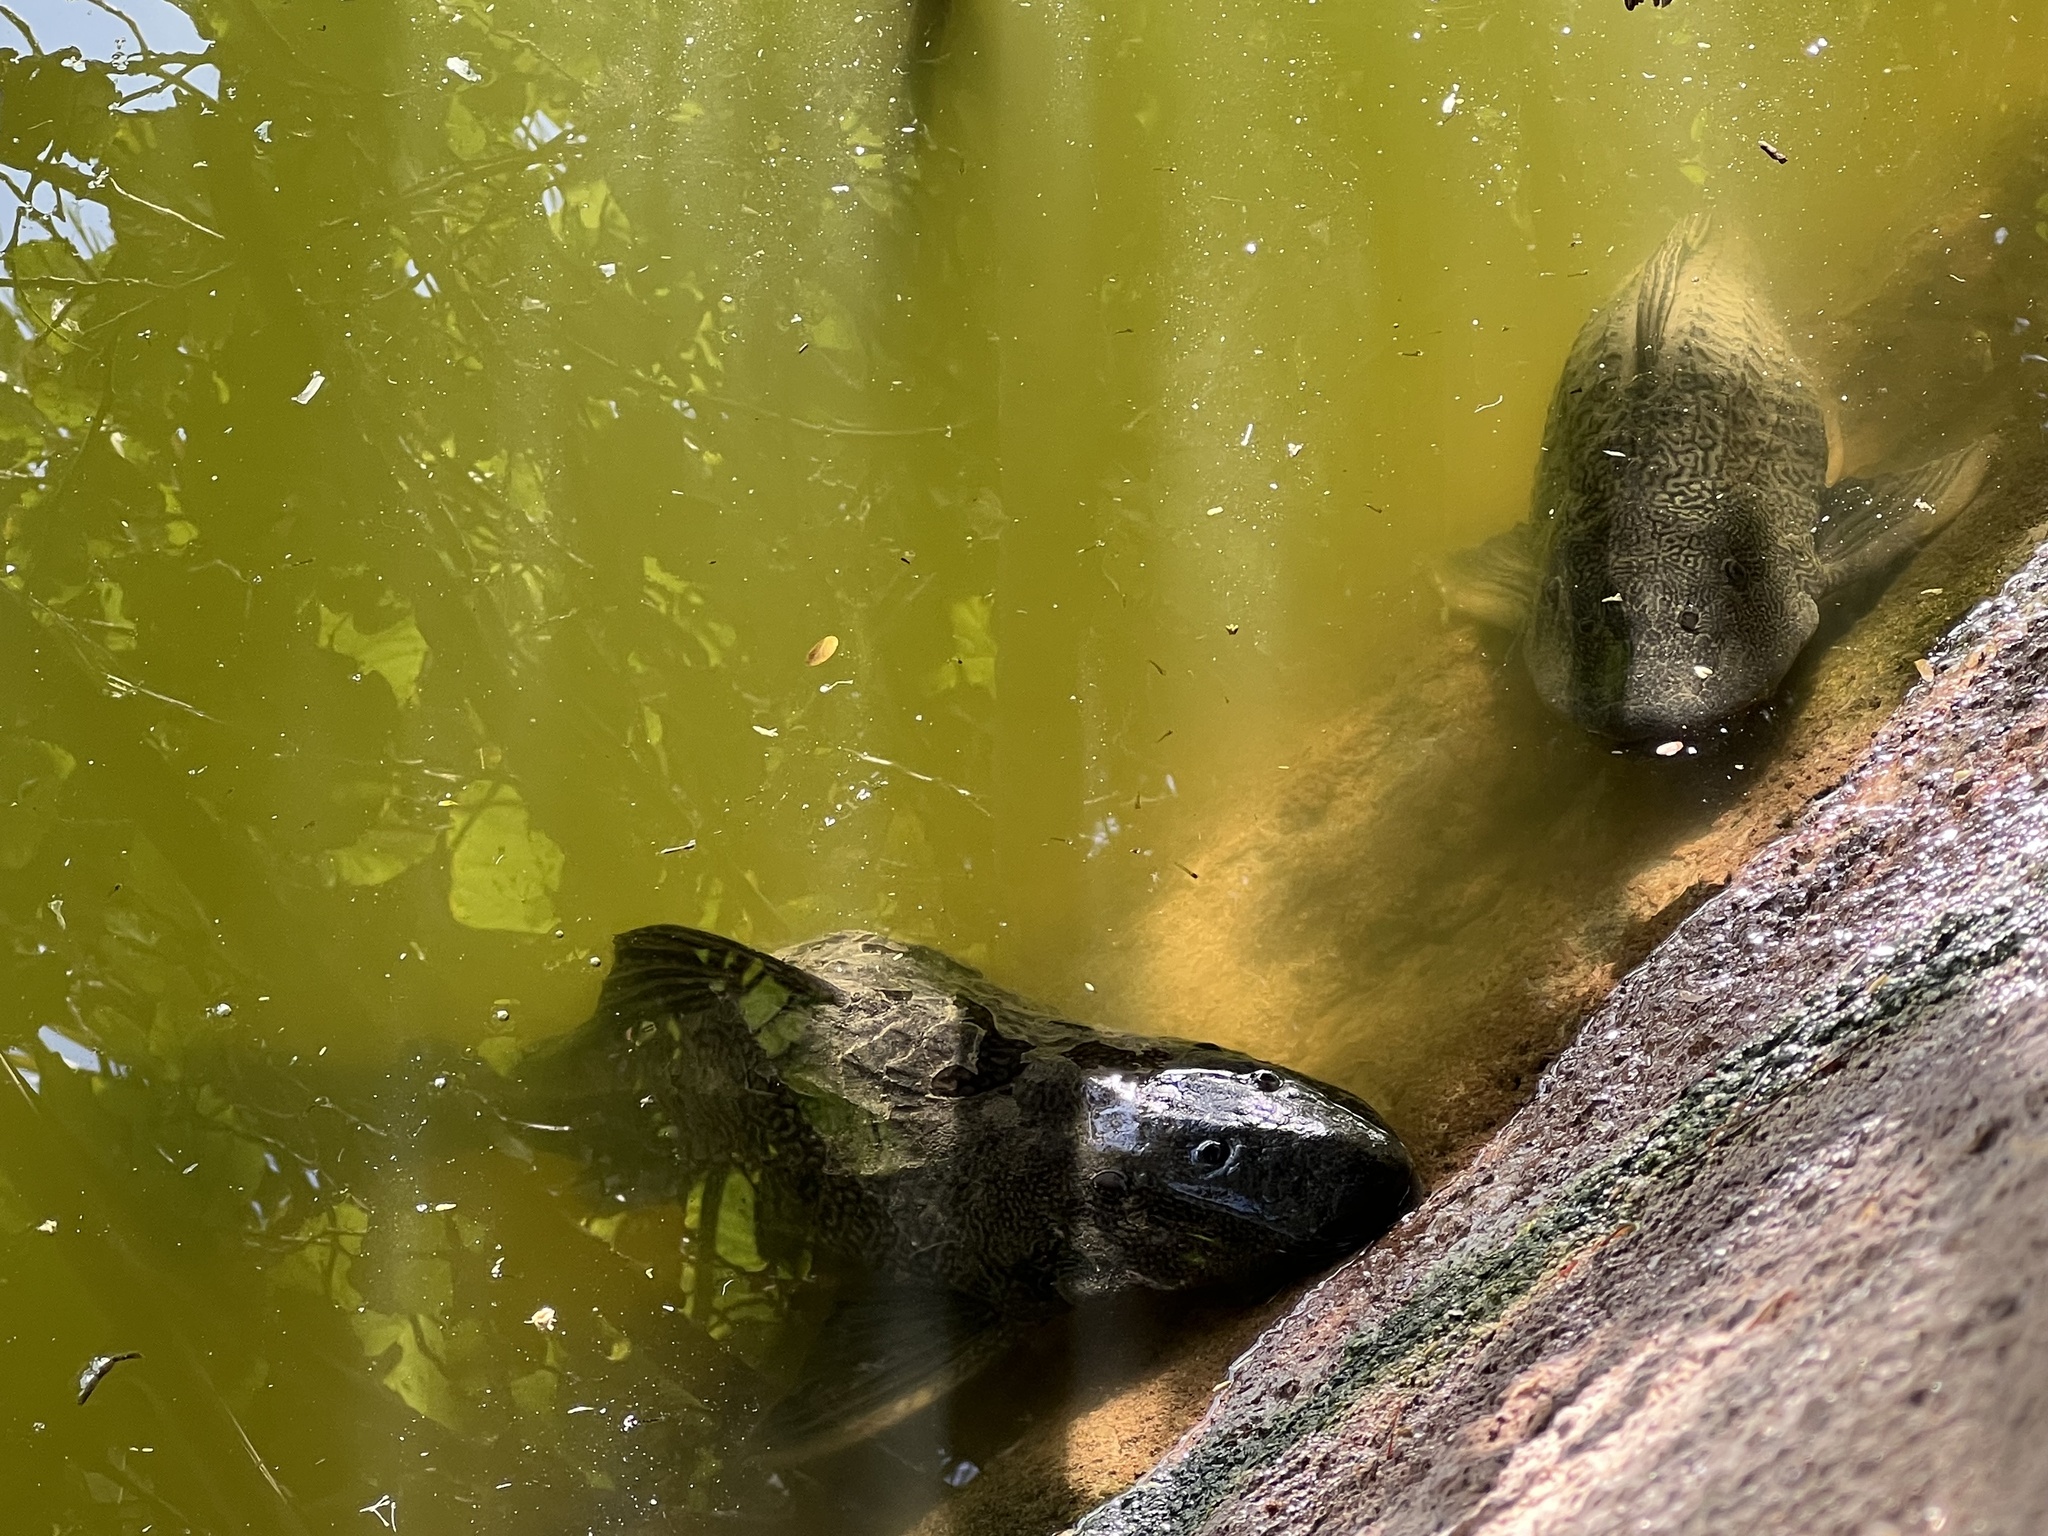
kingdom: Animalia
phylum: Chordata
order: Siluriformes
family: Loricariidae
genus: Pterygoplichthys
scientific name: Pterygoplichthys
